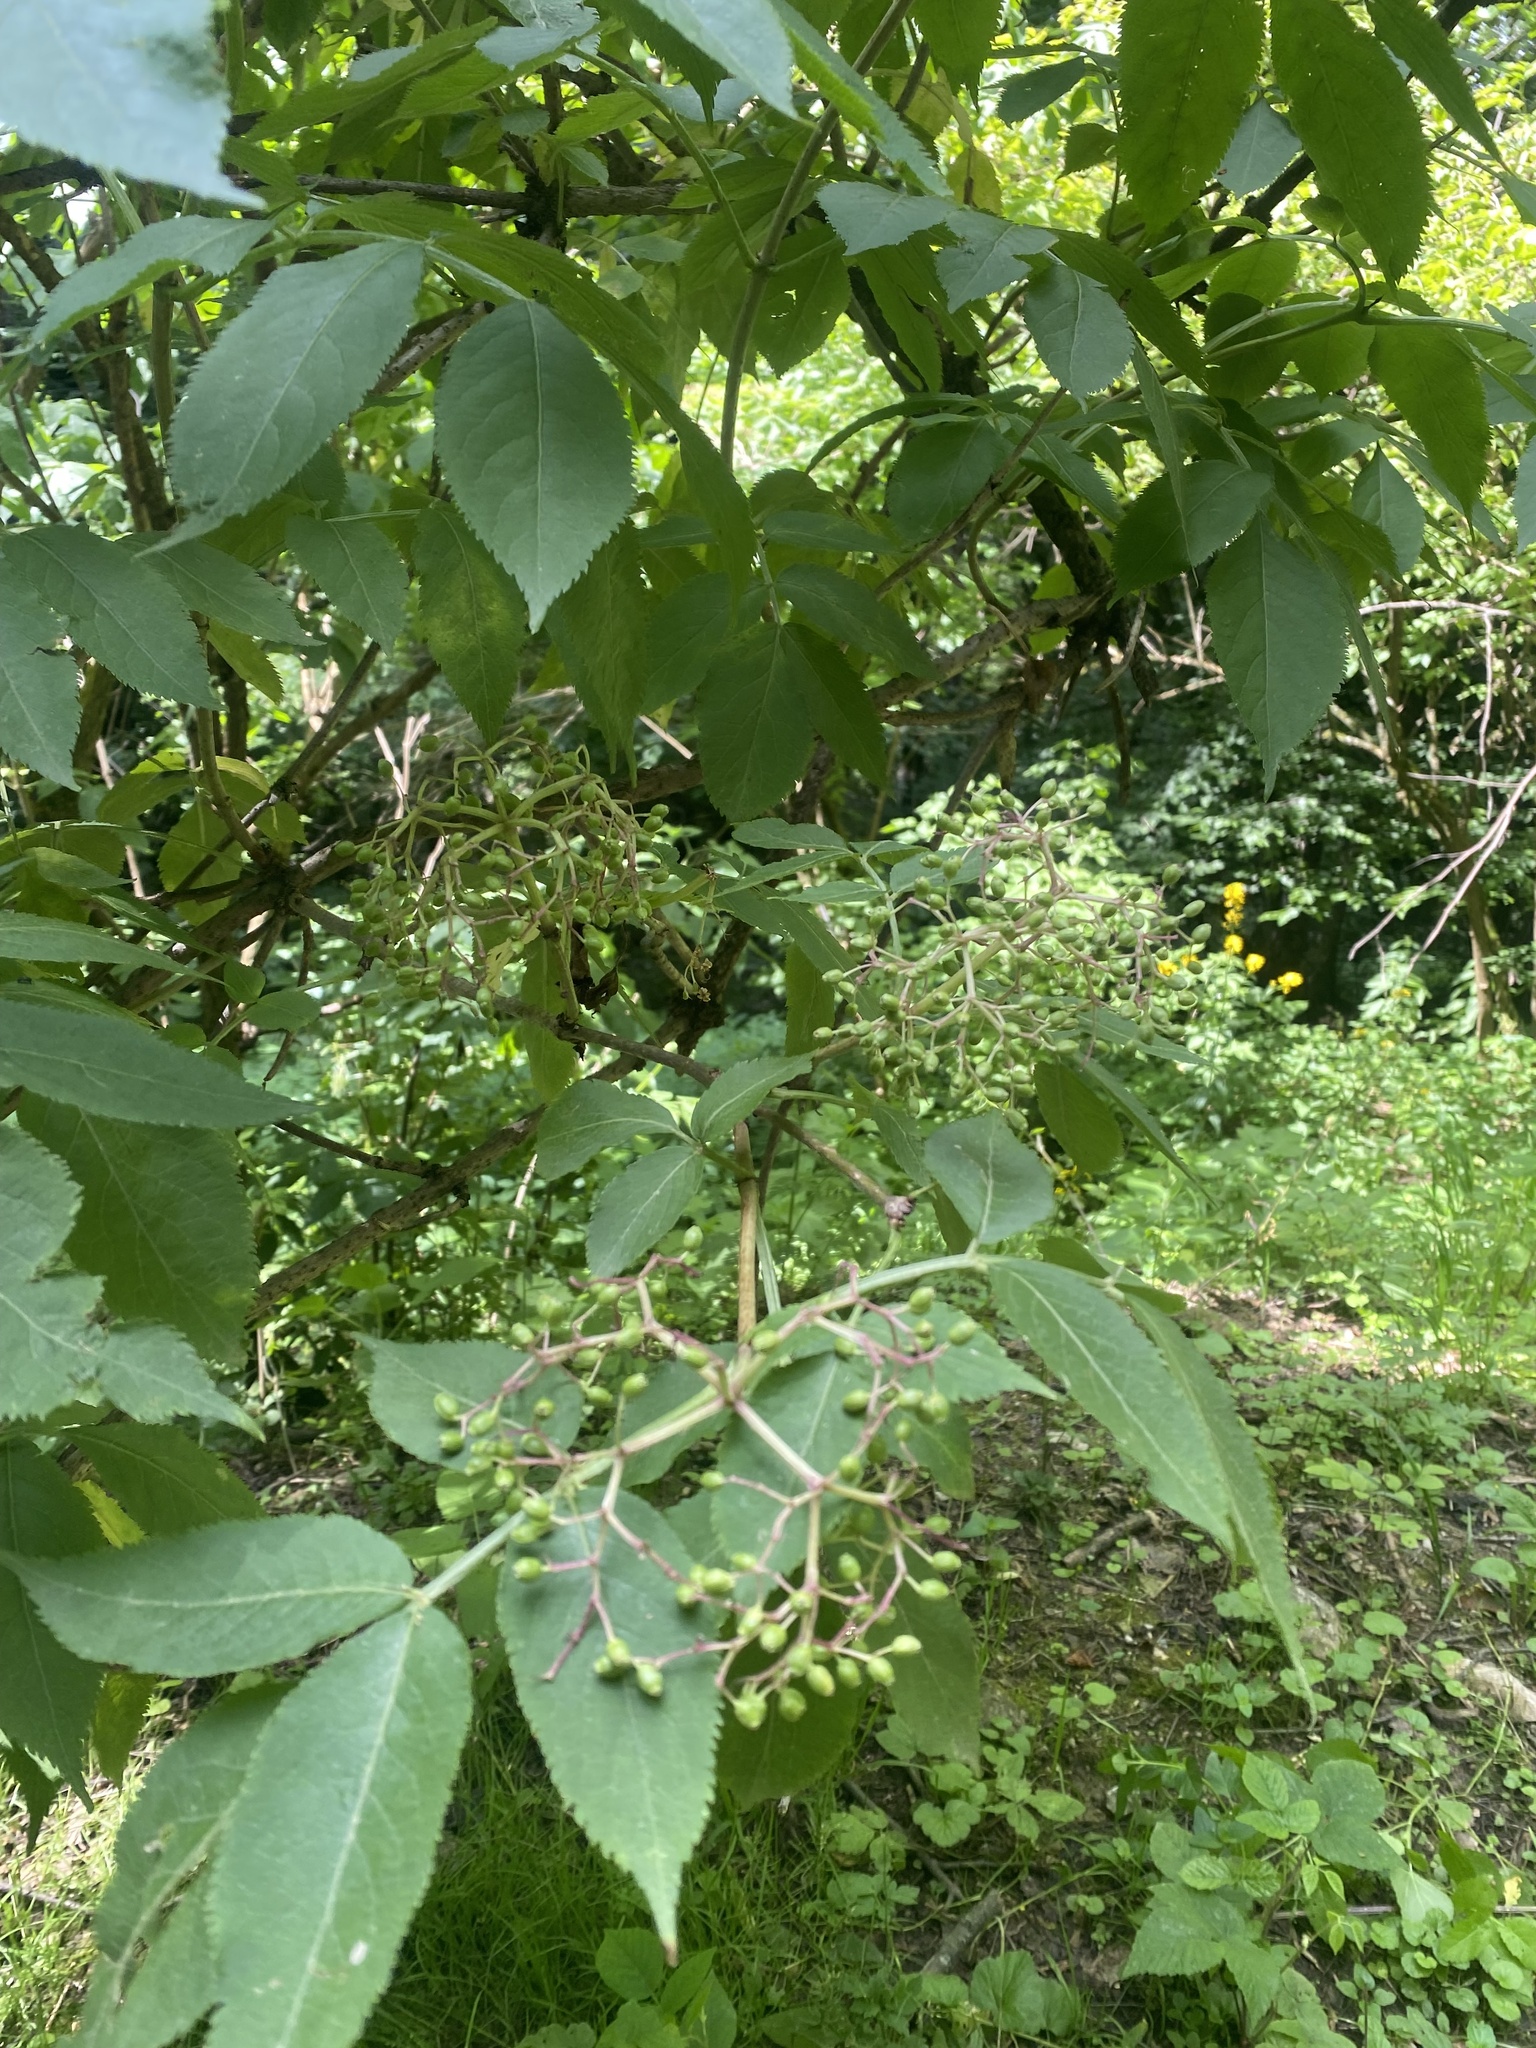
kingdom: Plantae
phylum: Tracheophyta
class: Magnoliopsida
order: Dipsacales
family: Viburnaceae
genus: Sambucus
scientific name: Sambucus nigra
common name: Elder
